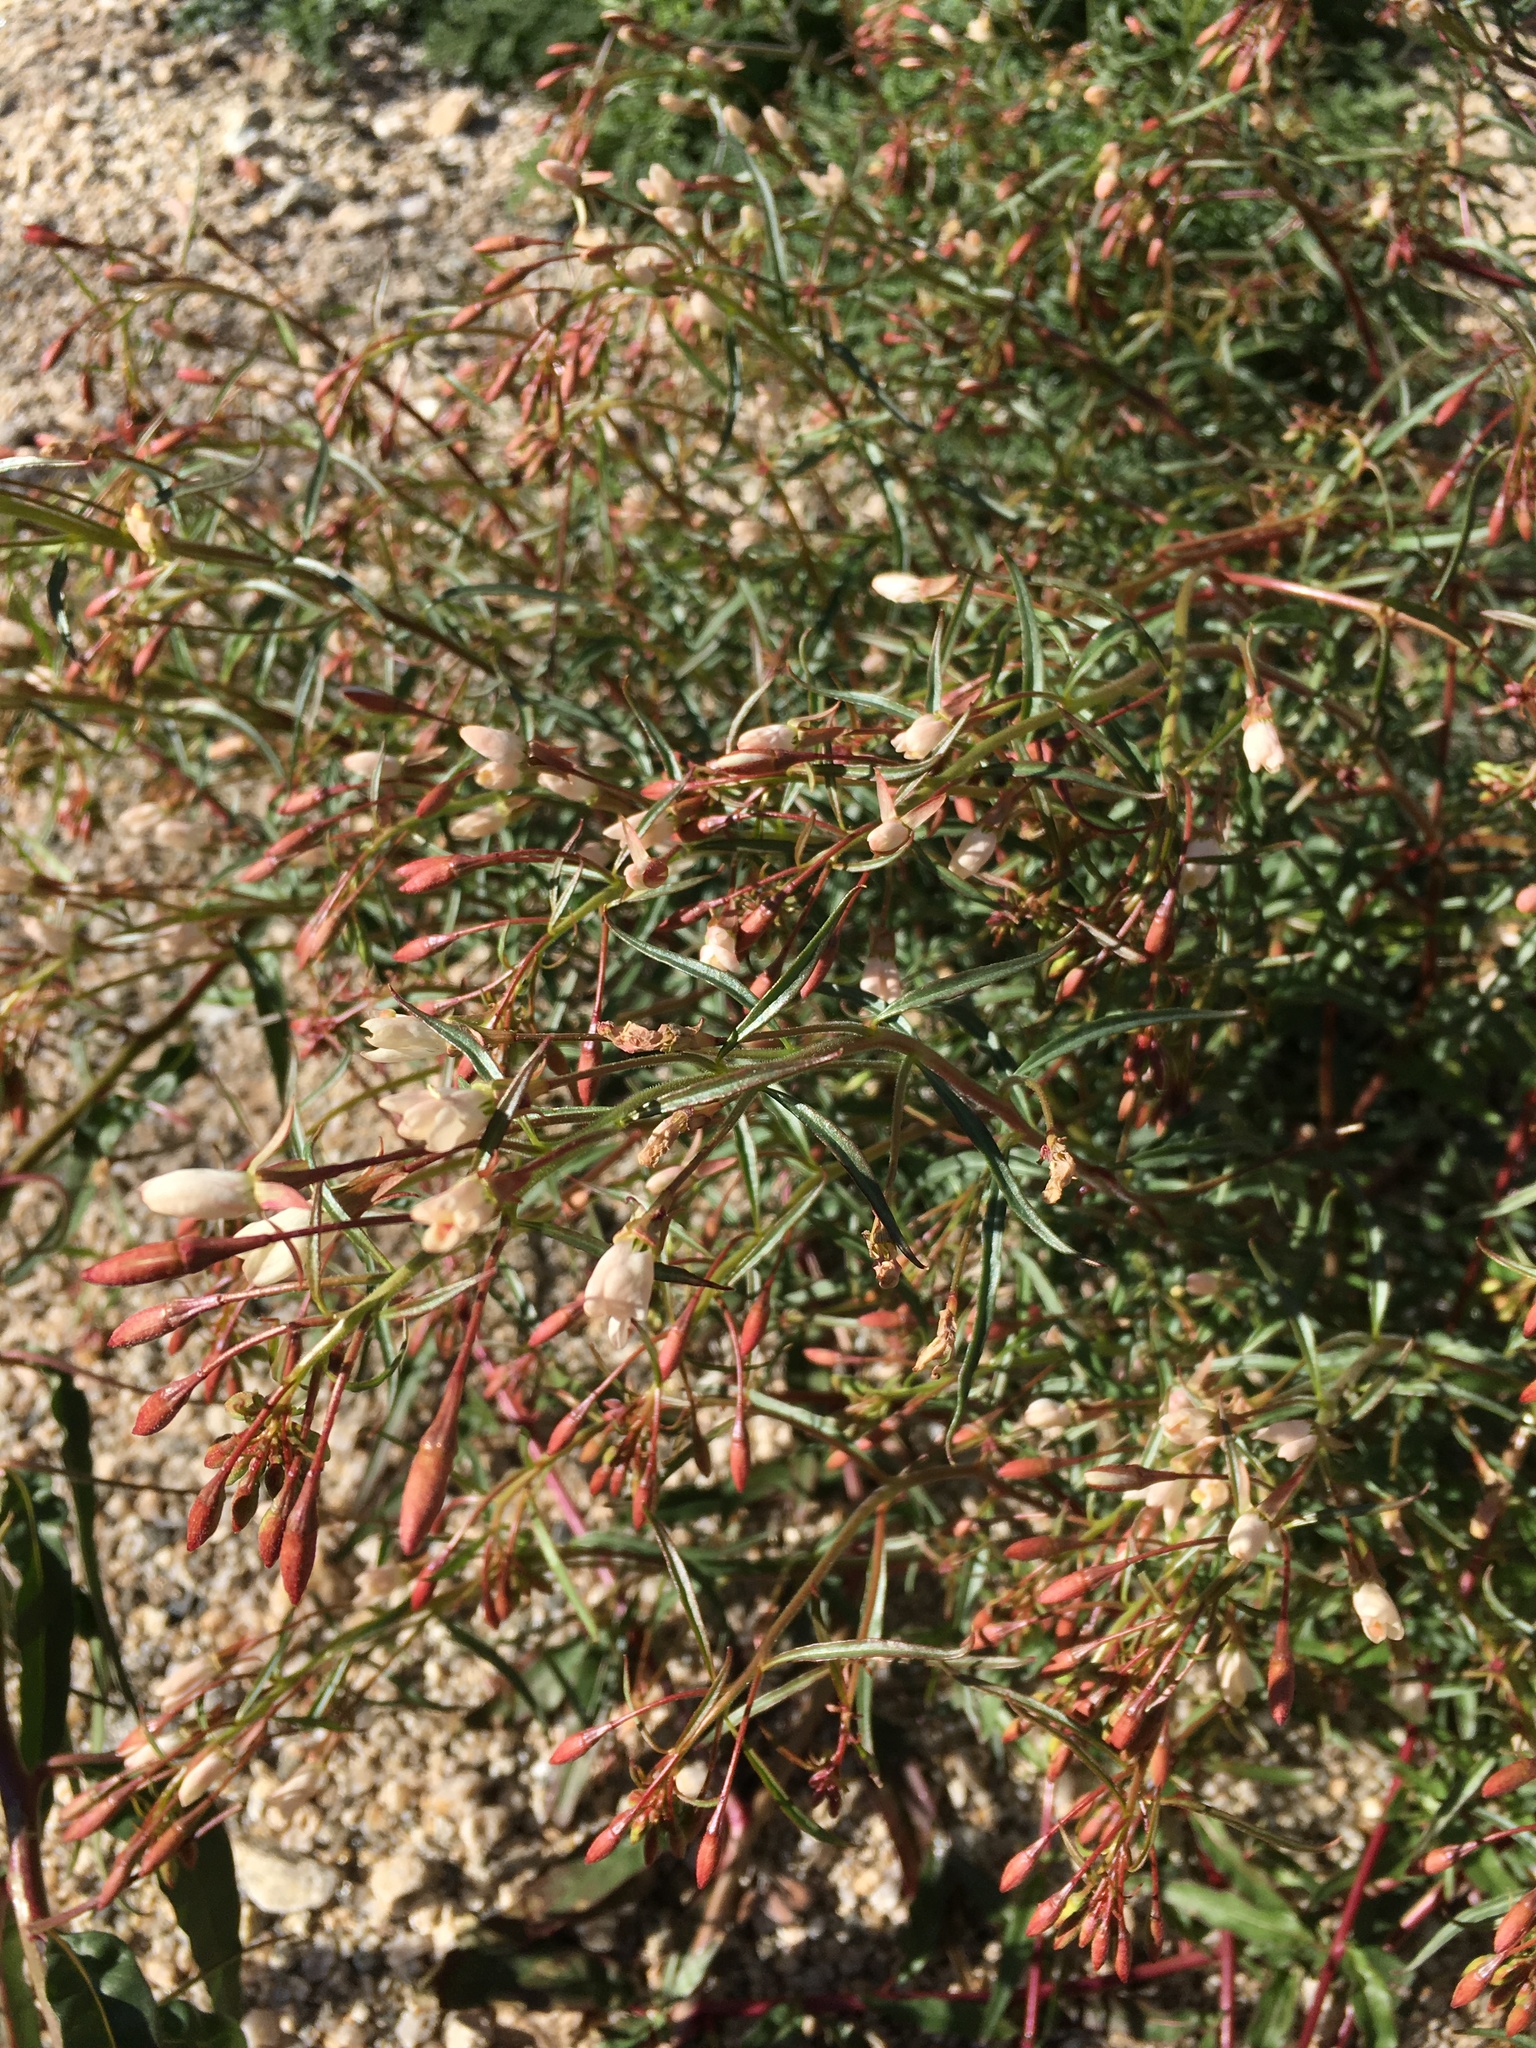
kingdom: Plantae
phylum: Tracheophyta
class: Magnoliopsida
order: Myrtales
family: Onagraceae
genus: Eremothera
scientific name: Eremothera refracta
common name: Narrowleaf suncup
